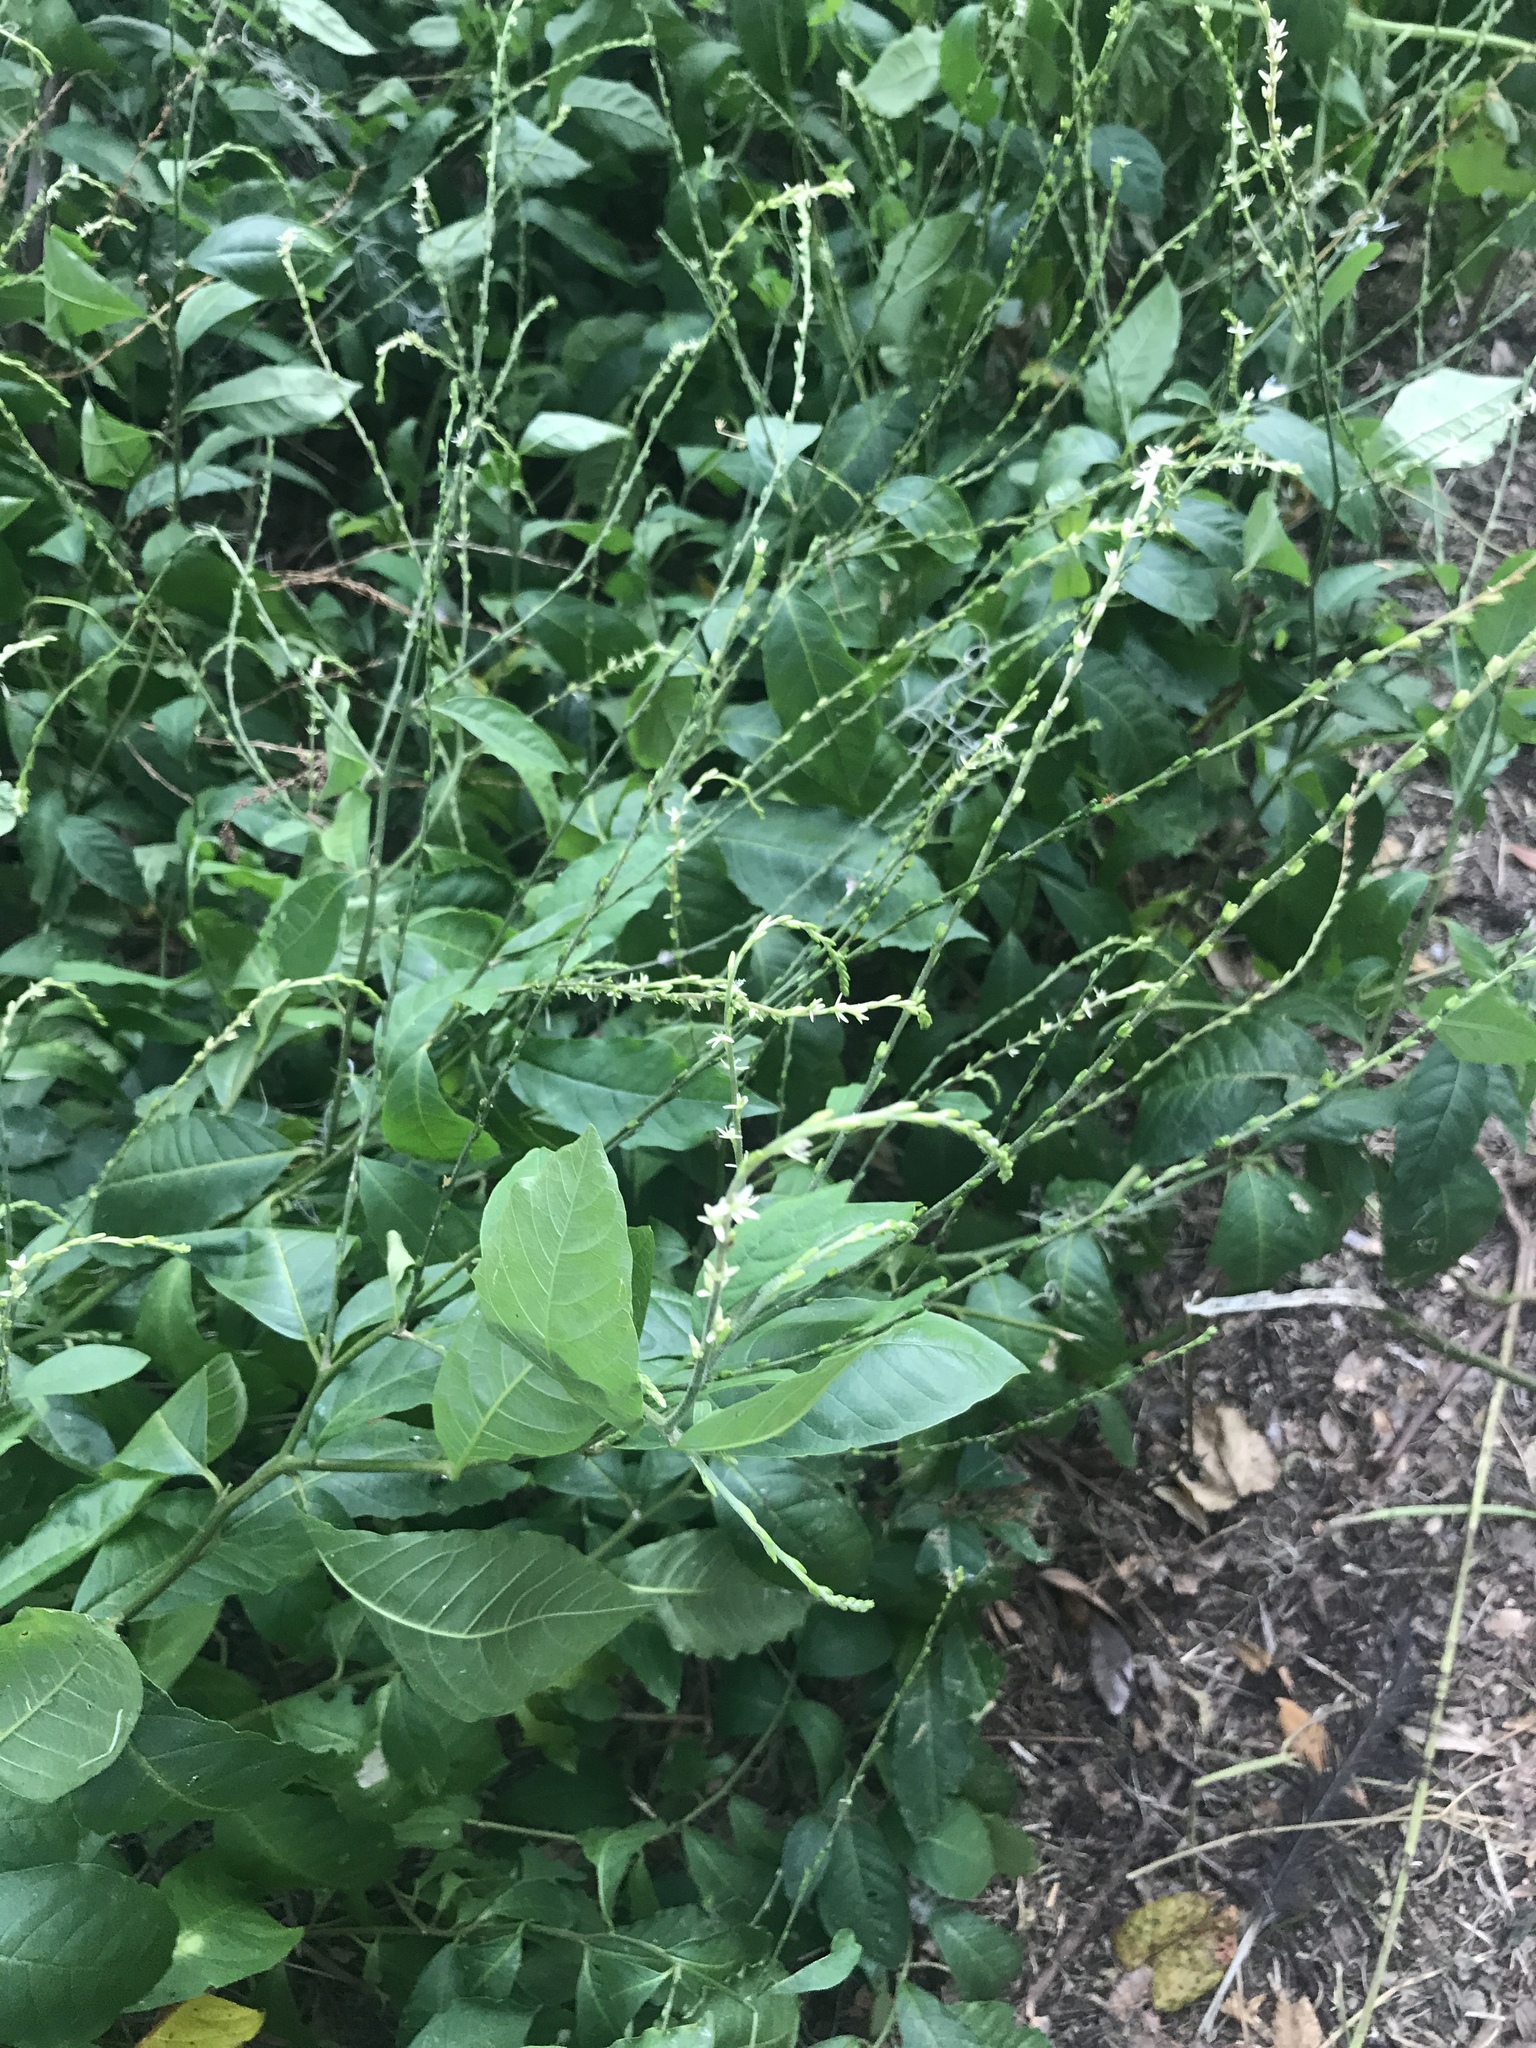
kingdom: Plantae
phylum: Tracheophyta
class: Magnoliopsida
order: Caryophyllales
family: Phytolaccaceae
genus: Petiveria
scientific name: Petiveria alliacea
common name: Garlicweed
